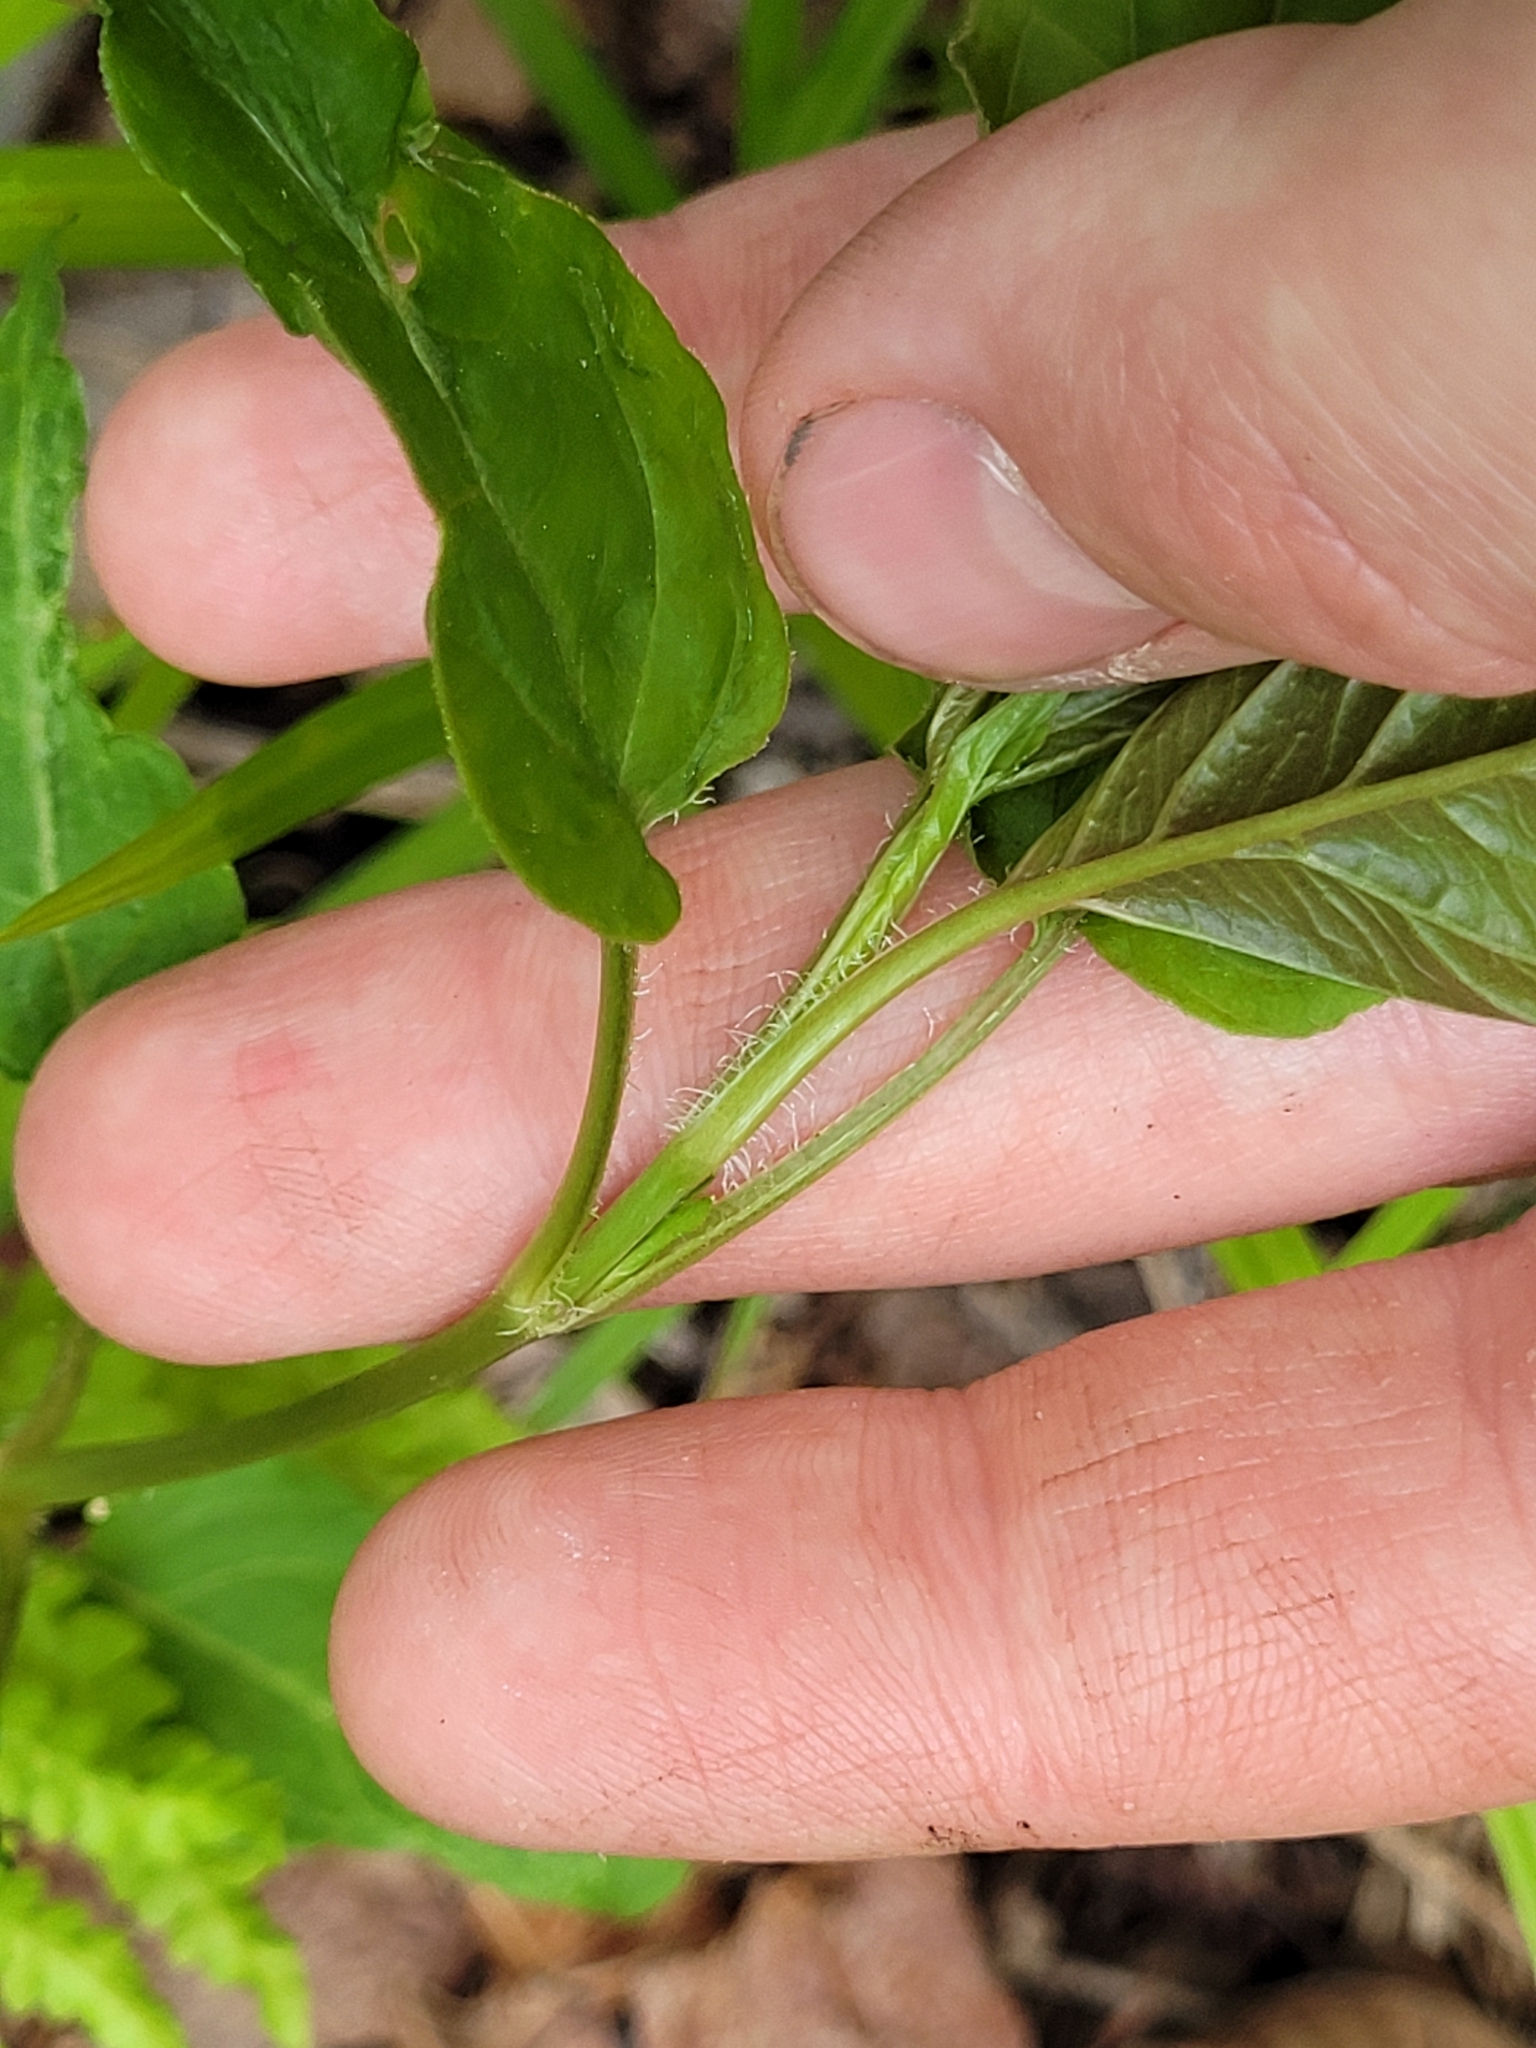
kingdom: Plantae
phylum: Tracheophyta
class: Magnoliopsida
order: Ericales
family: Primulaceae
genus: Lysimachia
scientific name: Lysimachia ciliata
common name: Fringed loosestrife
